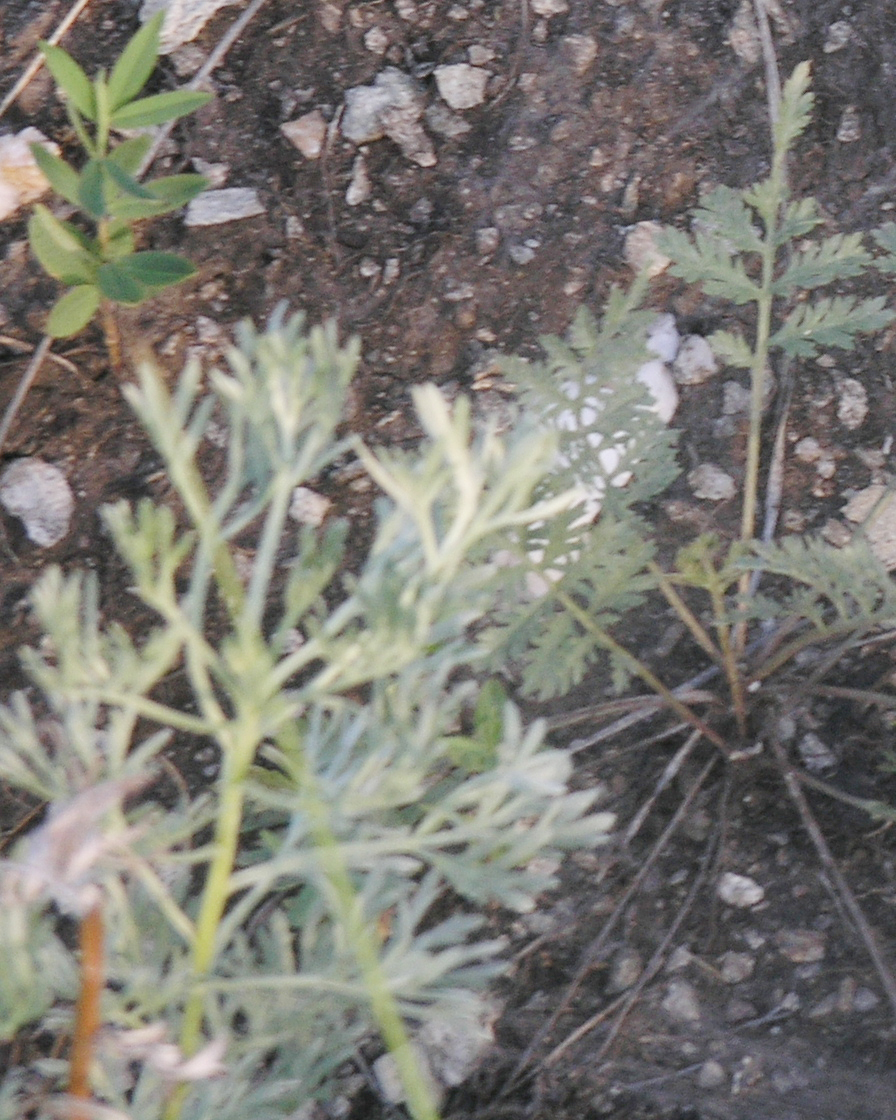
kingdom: Plantae
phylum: Tracheophyta
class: Magnoliopsida
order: Asterales
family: Asteraceae
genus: Artemisia
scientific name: Artemisia vulgaris
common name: Mugwort
